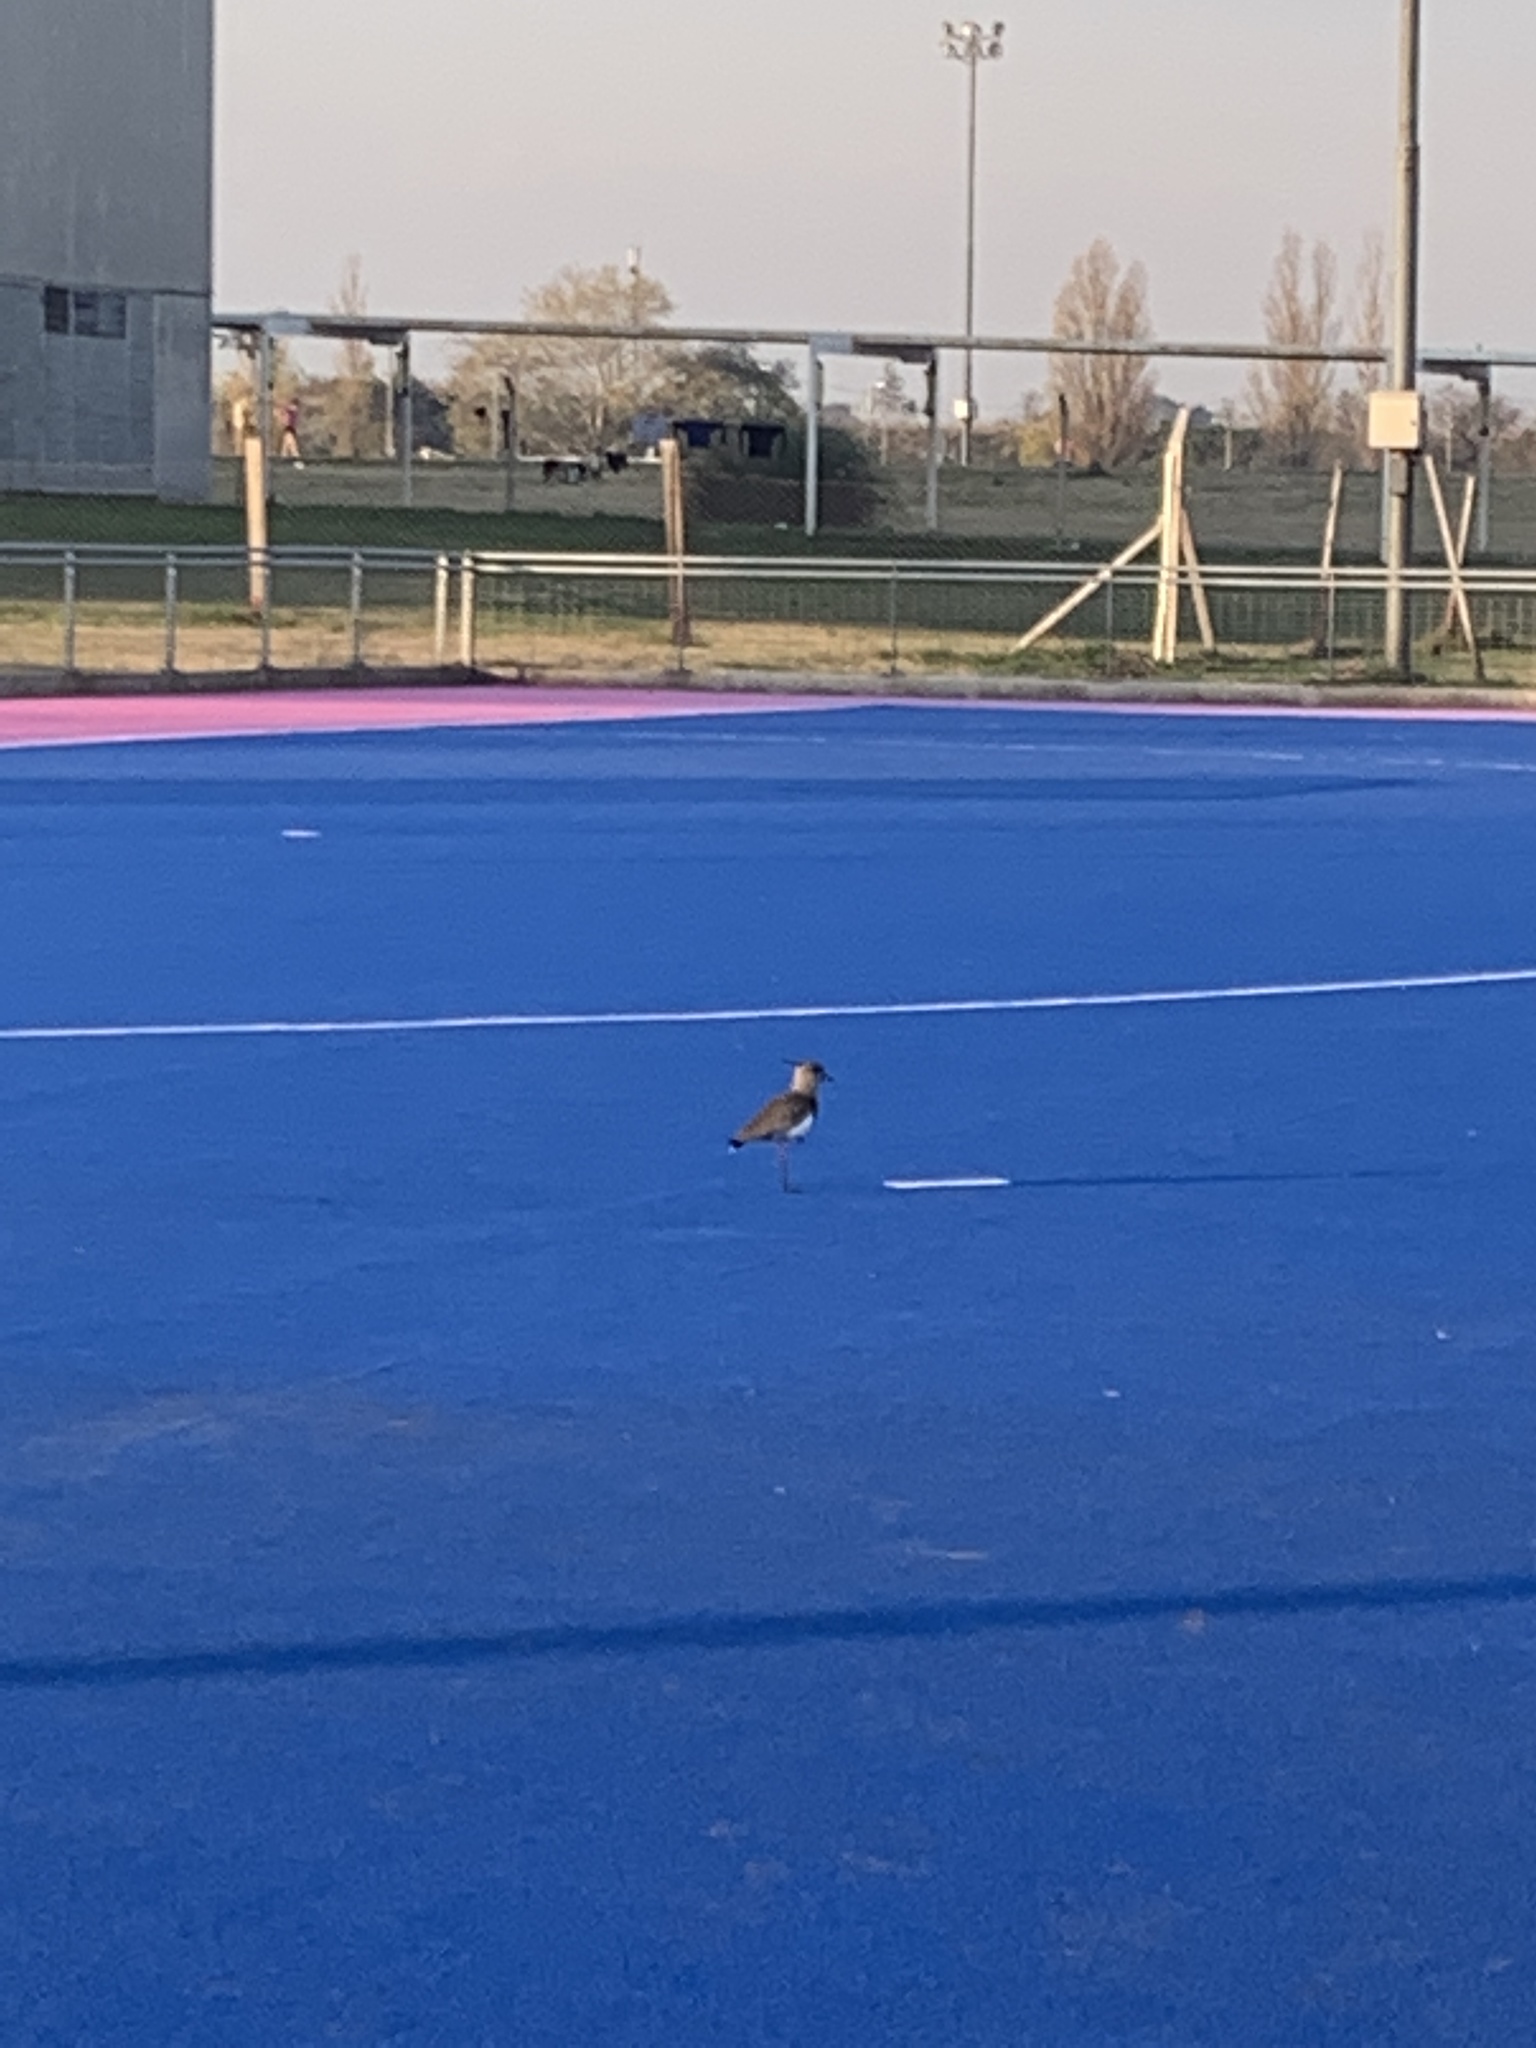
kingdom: Animalia
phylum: Chordata
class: Aves
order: Charadriiformes
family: Charadriidae
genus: Vanellus
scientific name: Vanellus chilensis
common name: Southern lapwing
